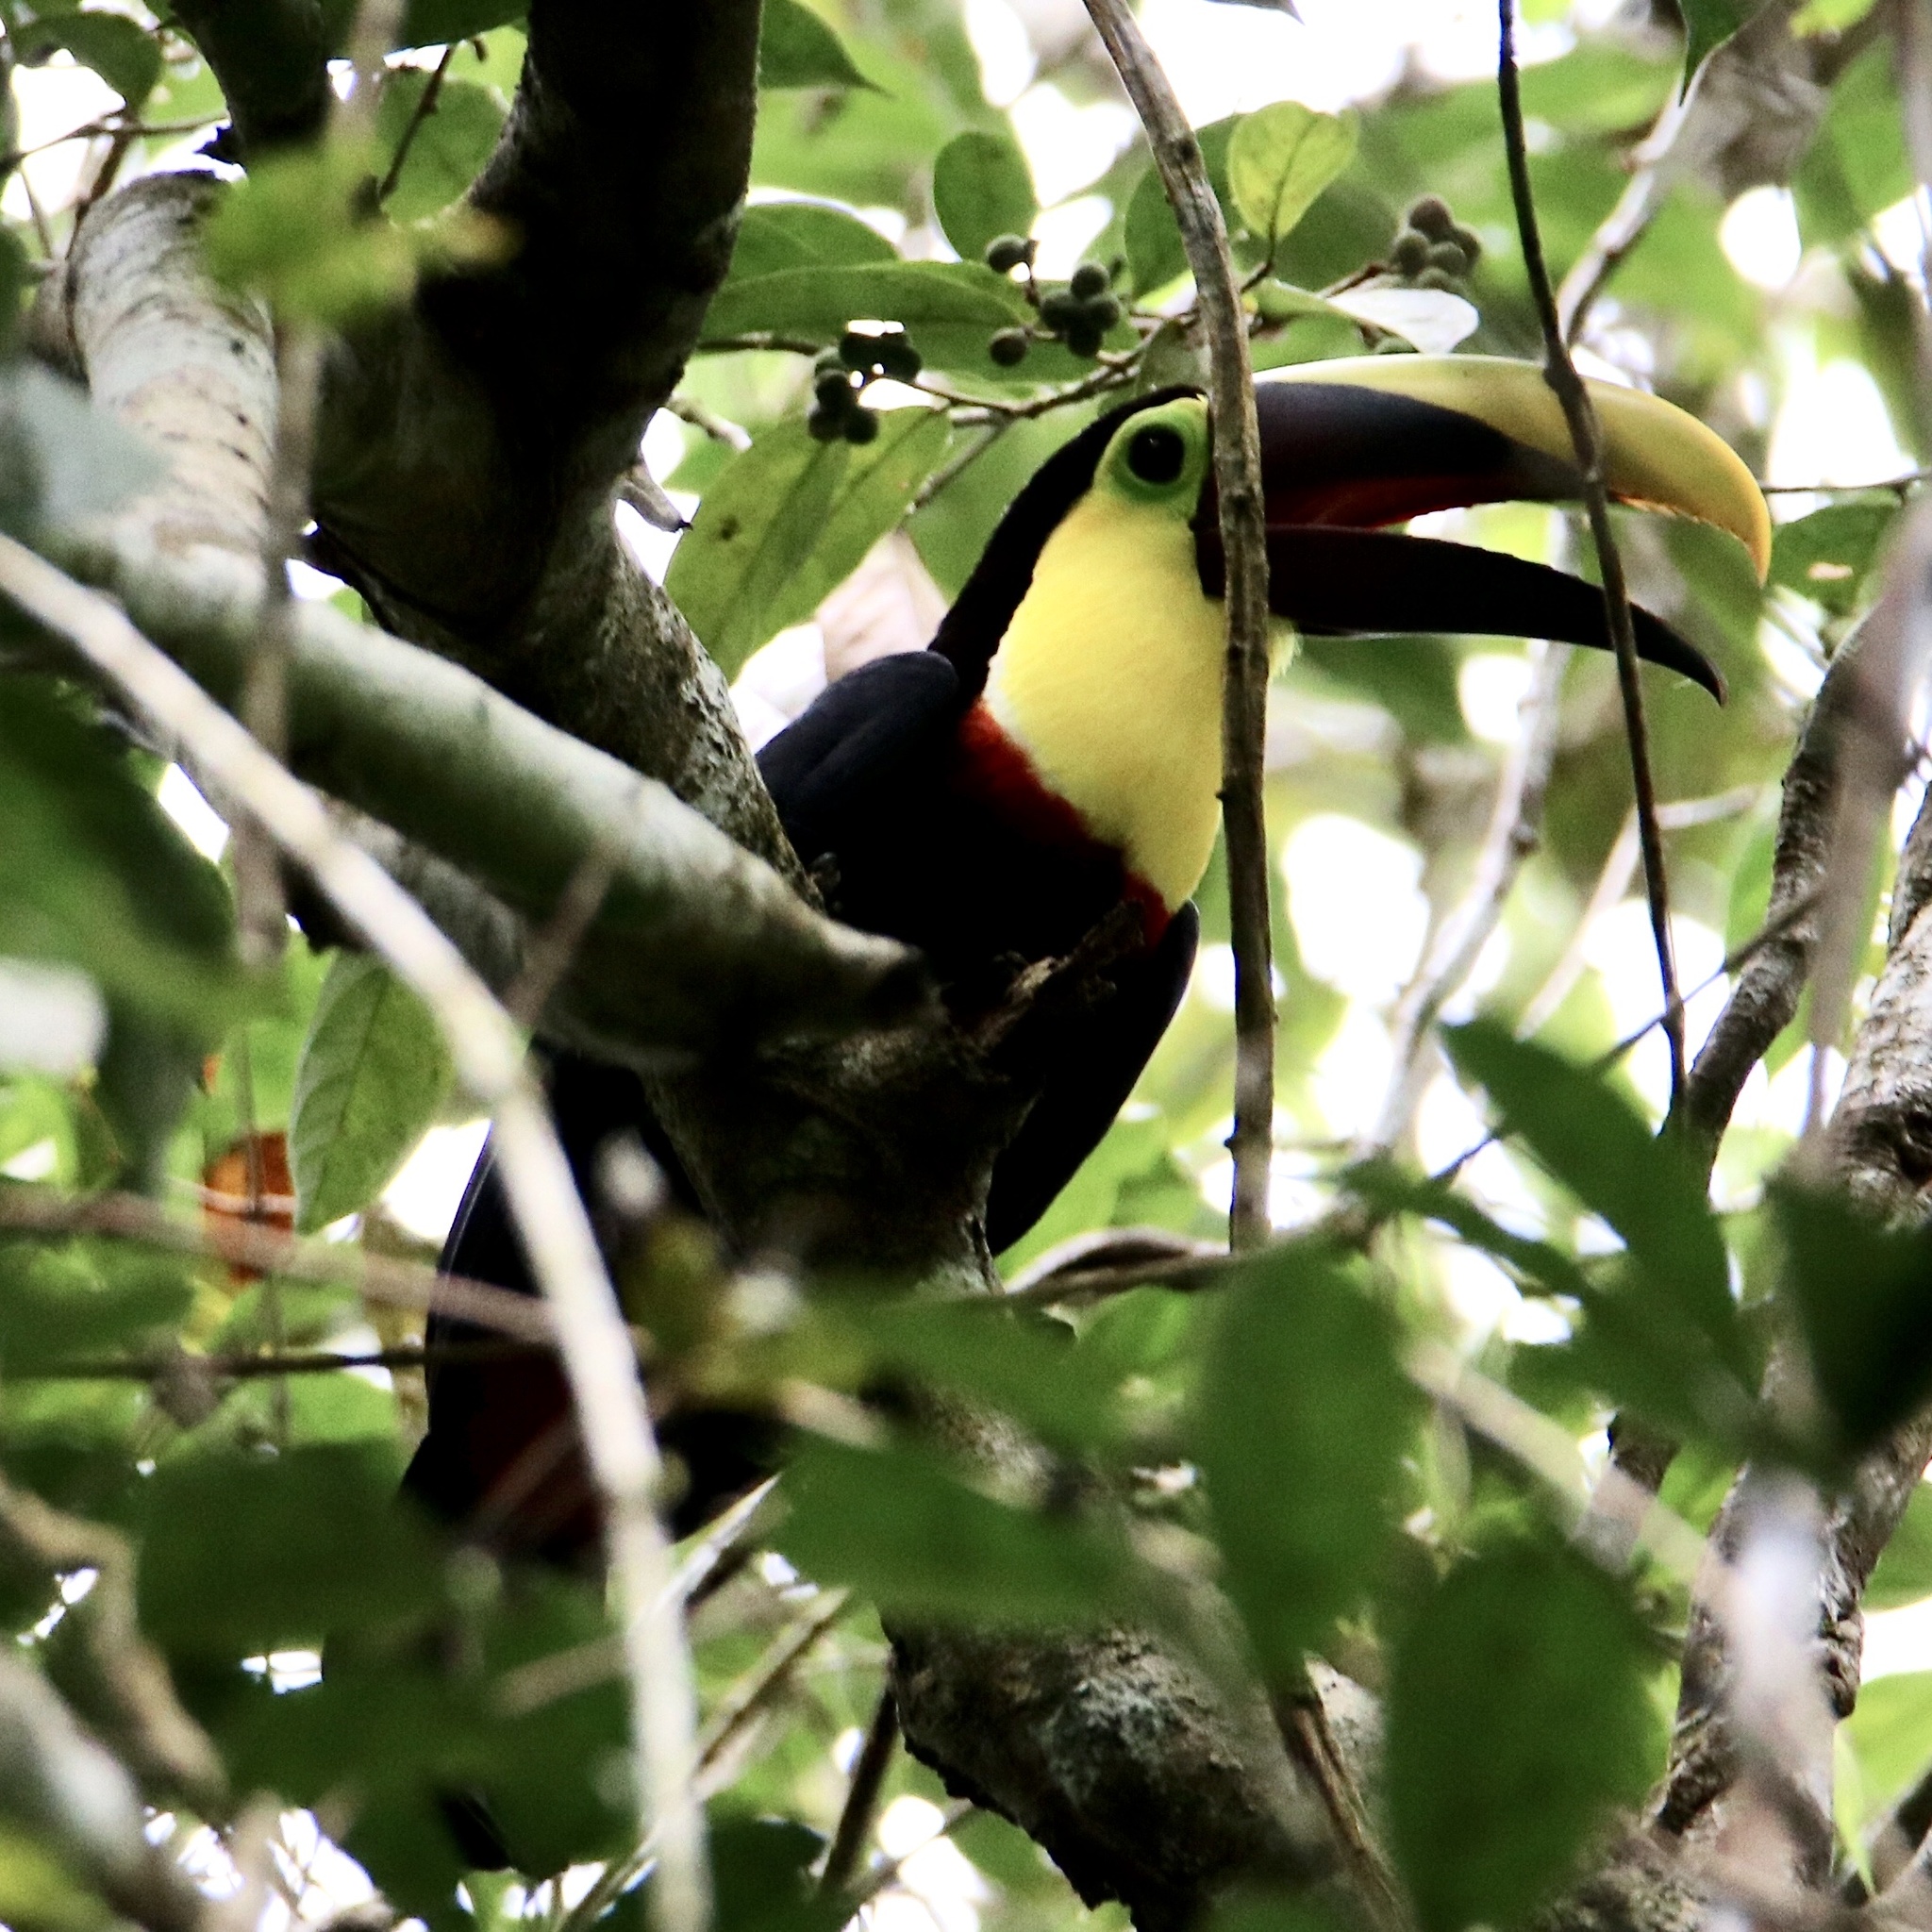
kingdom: Animalia
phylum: Chordata
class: Aves
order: Piciformes
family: Ramphastidae
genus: Ramphastos
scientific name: Ramphastos ambiguus
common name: Yellow-throated toucan
